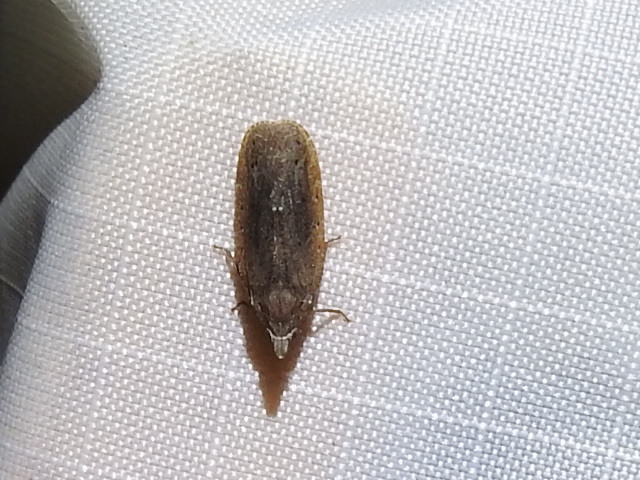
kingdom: Animalia
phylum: Arthropoda
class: Insecta
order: Hemiptera
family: Achilidae
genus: Cixidia
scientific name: Cixidia fusca
